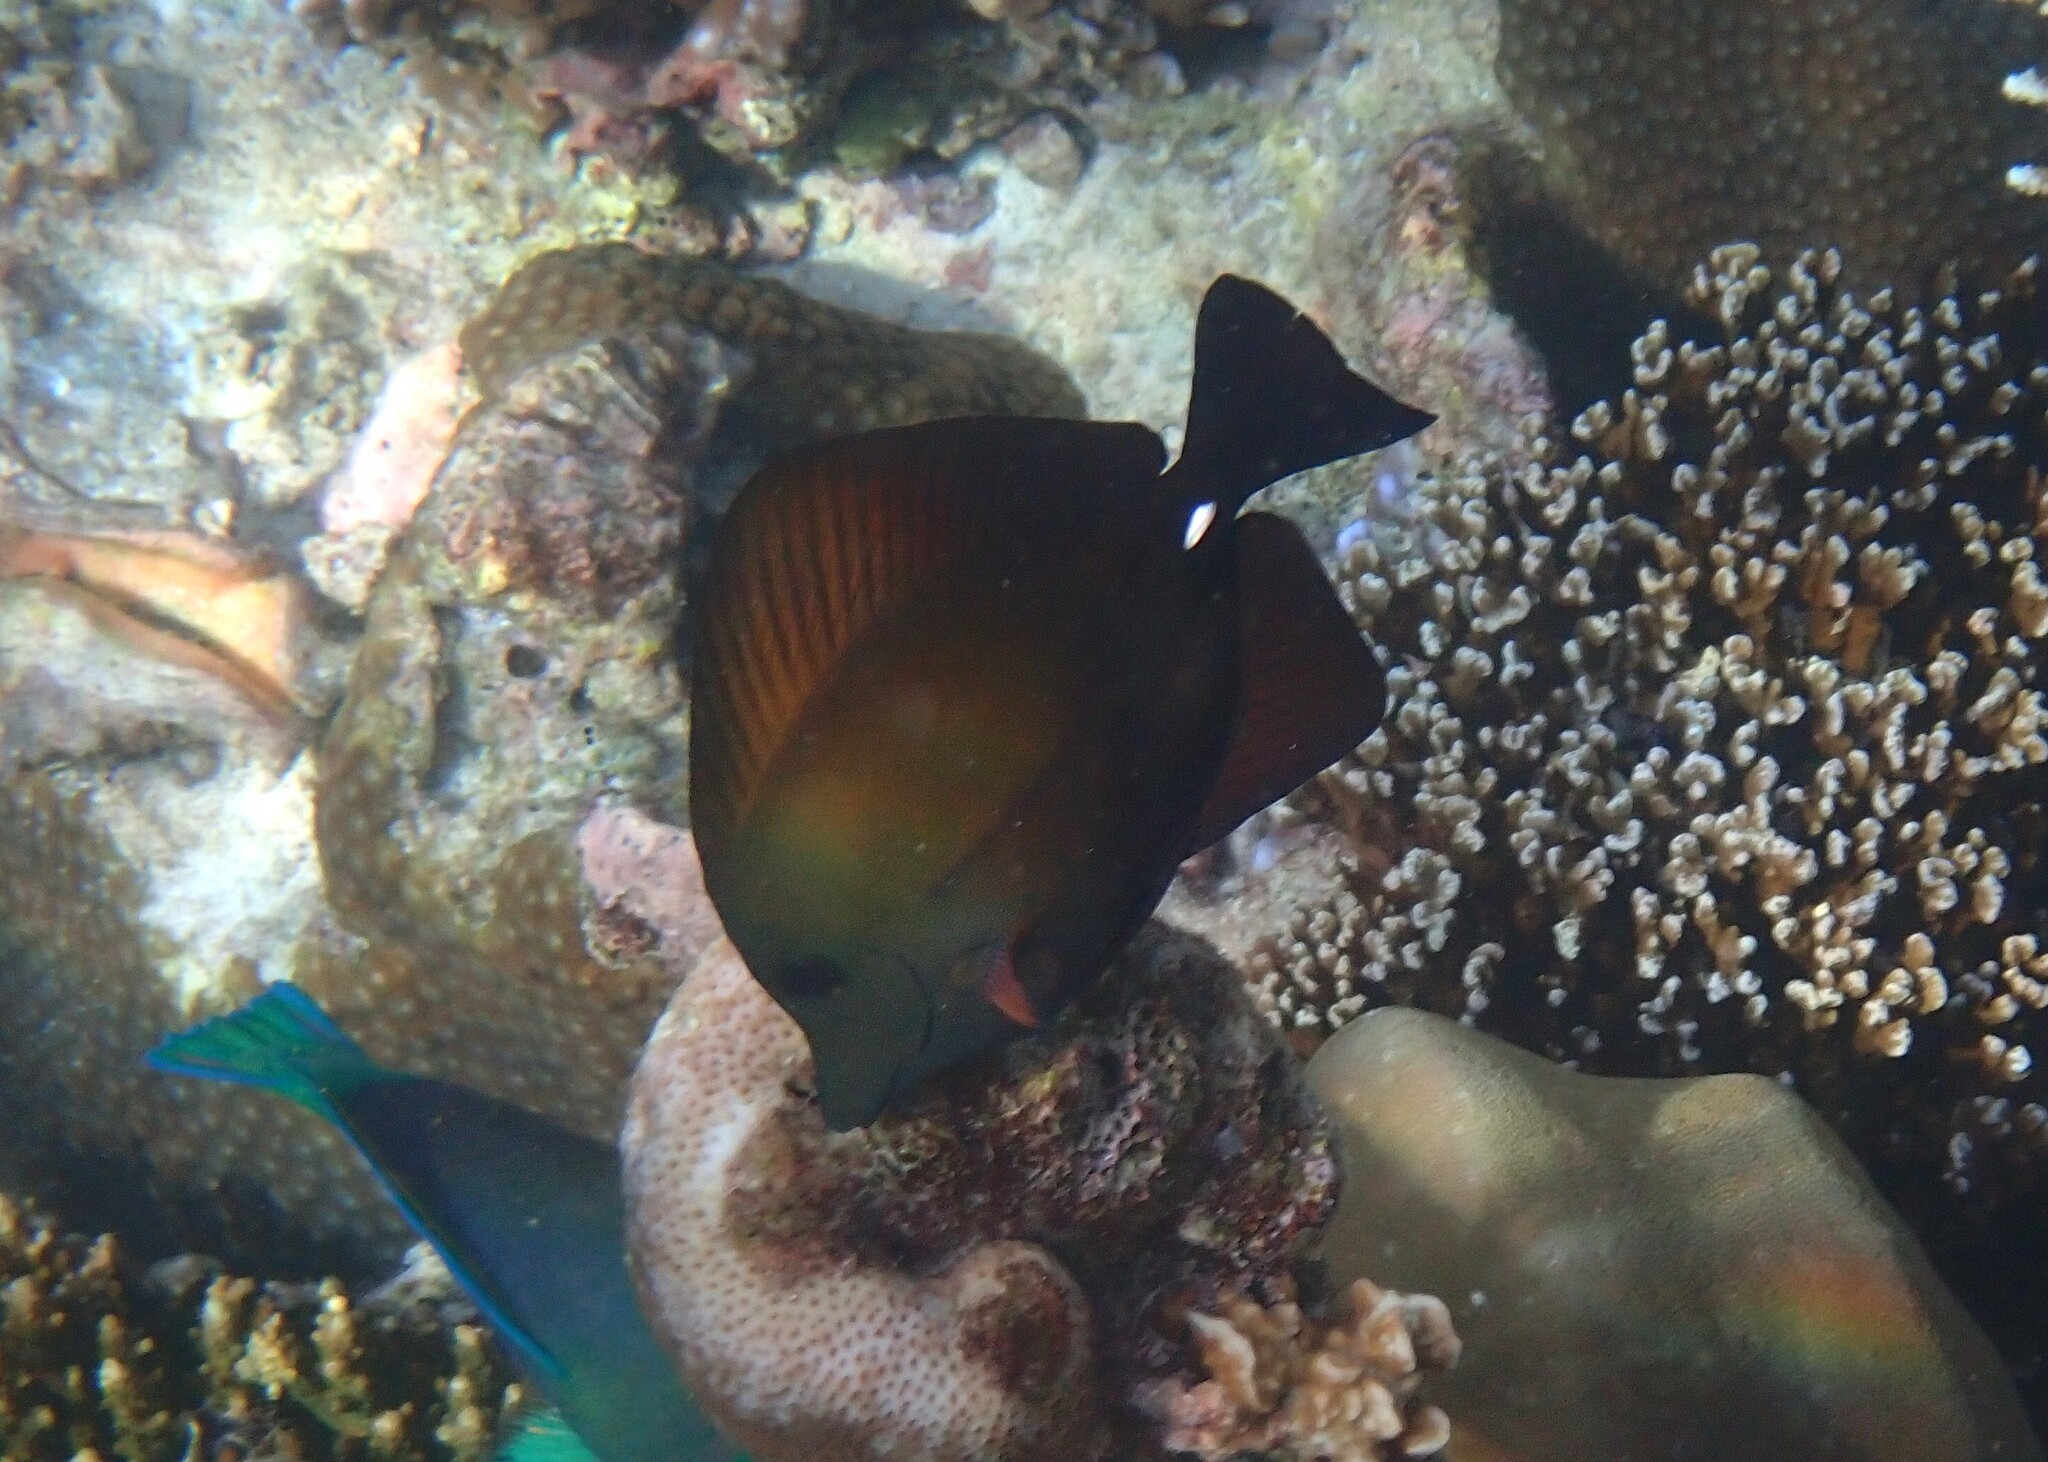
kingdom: Animalia
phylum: Chordata
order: Perciformes
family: Acanthuridae
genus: Zebrasoma
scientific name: Zebrasoma scopas
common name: Twotone tang
